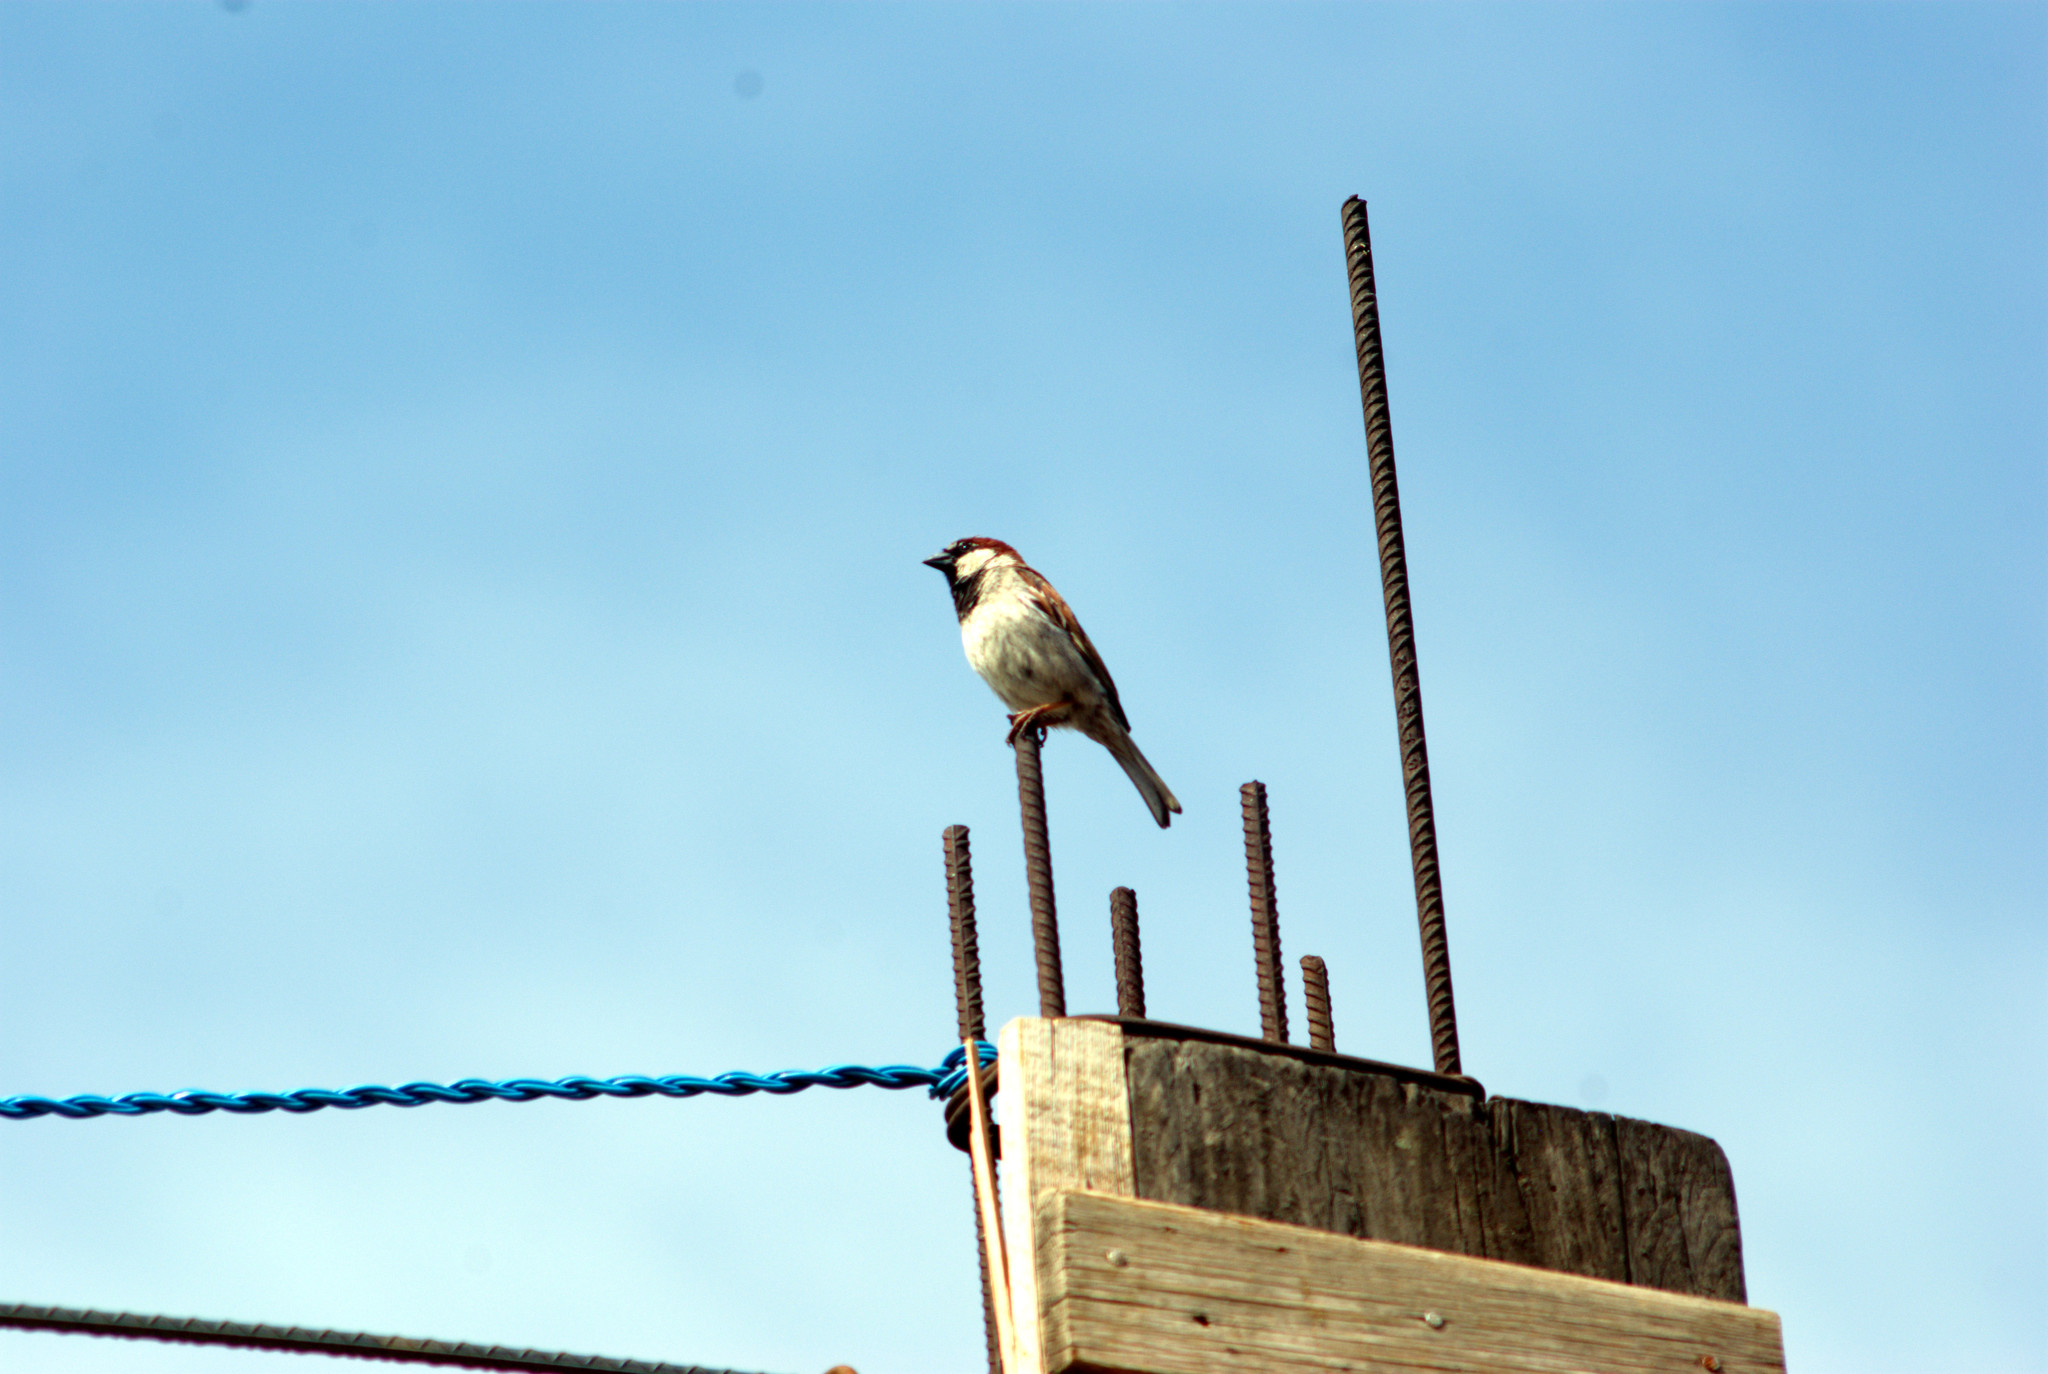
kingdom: Animalia
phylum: Chordata
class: Aves
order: Passeriformes
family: Passeridae
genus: Passer
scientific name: Passer domesticus
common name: House sparrow
